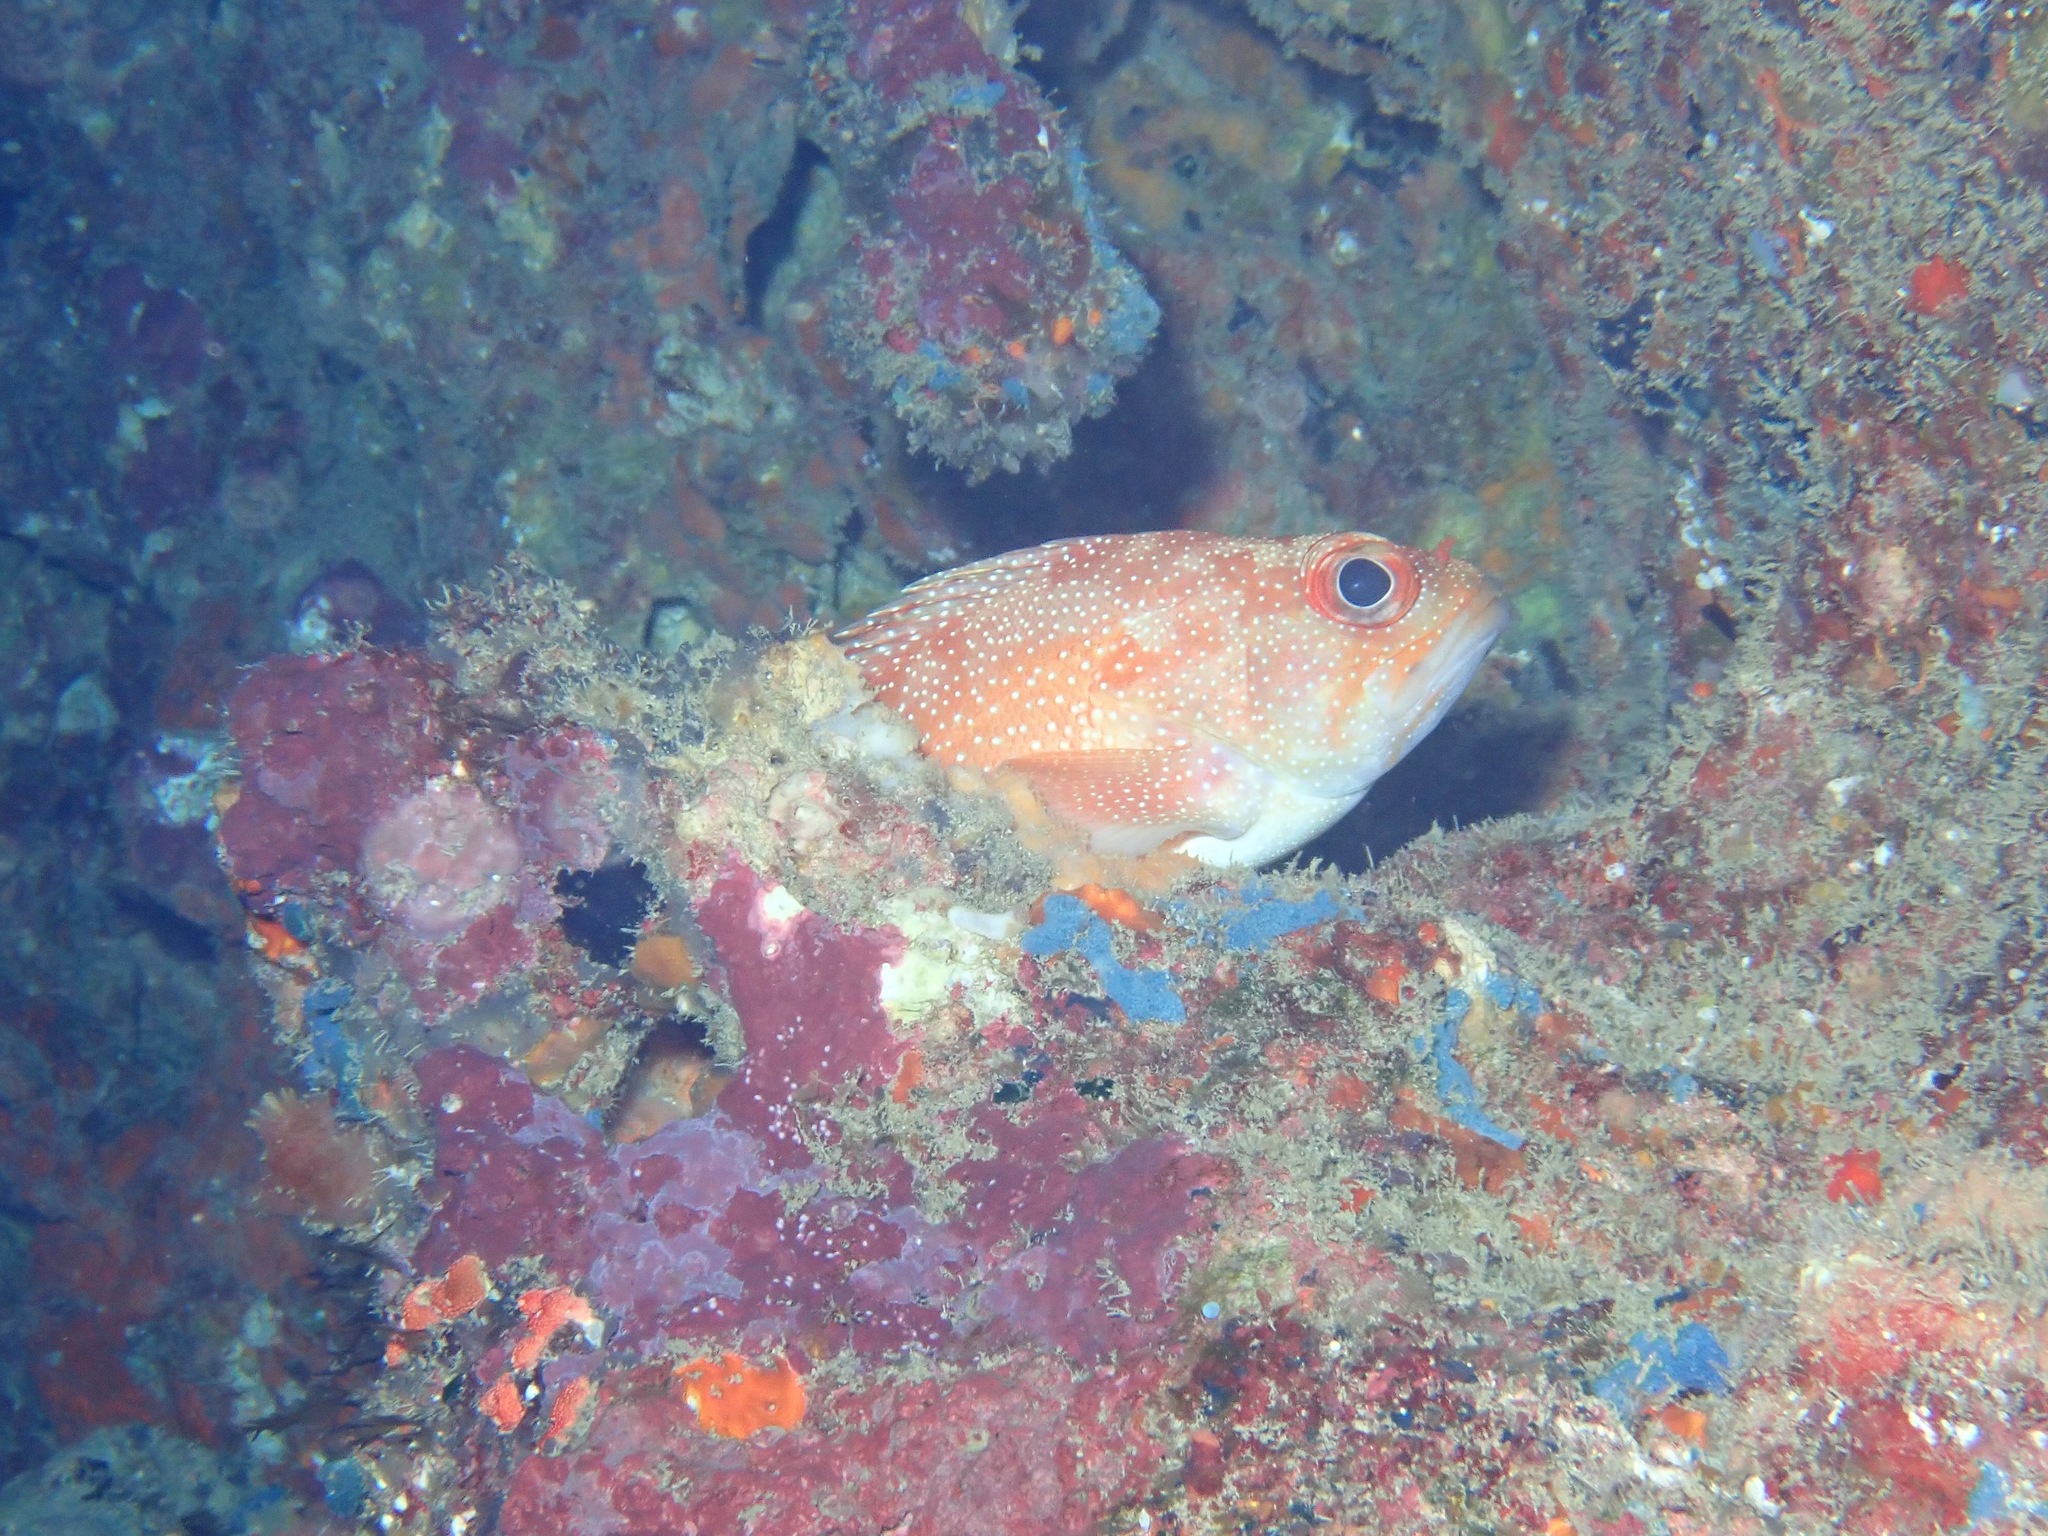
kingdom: Animalia
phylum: Chordata
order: Perciformes
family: Serranidae
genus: Trachypoma
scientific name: Trachypoma macracanthus
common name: Toadstool grouper
